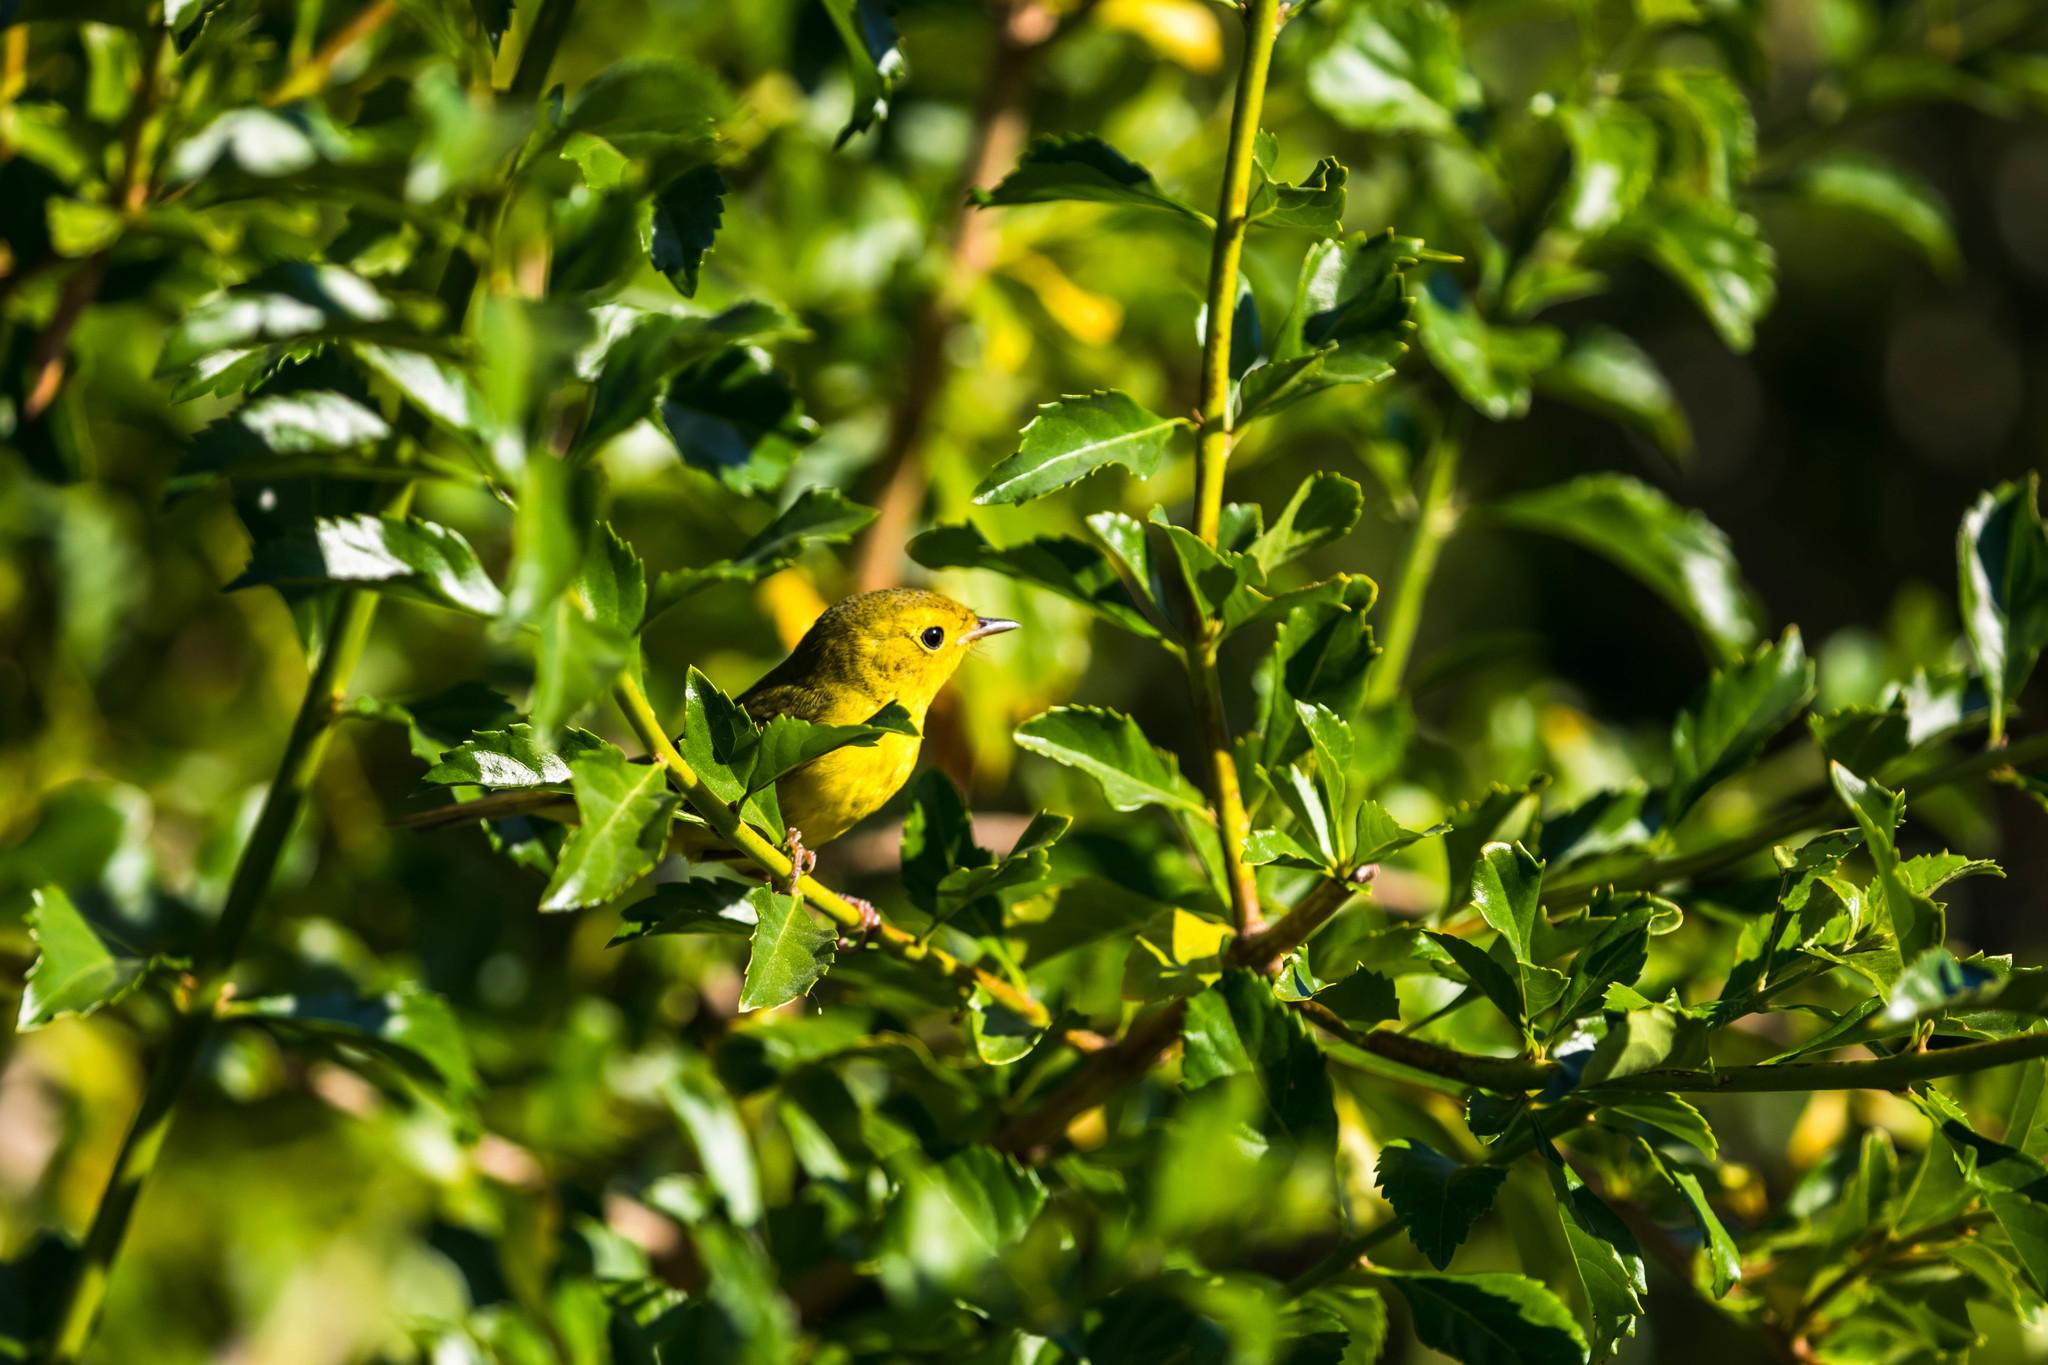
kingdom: Animalia
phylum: Chordata
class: Aves
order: Passeriformes
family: Parulidae
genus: Cardellina
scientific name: Cardellina pusilla
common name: Wilson's warbler
